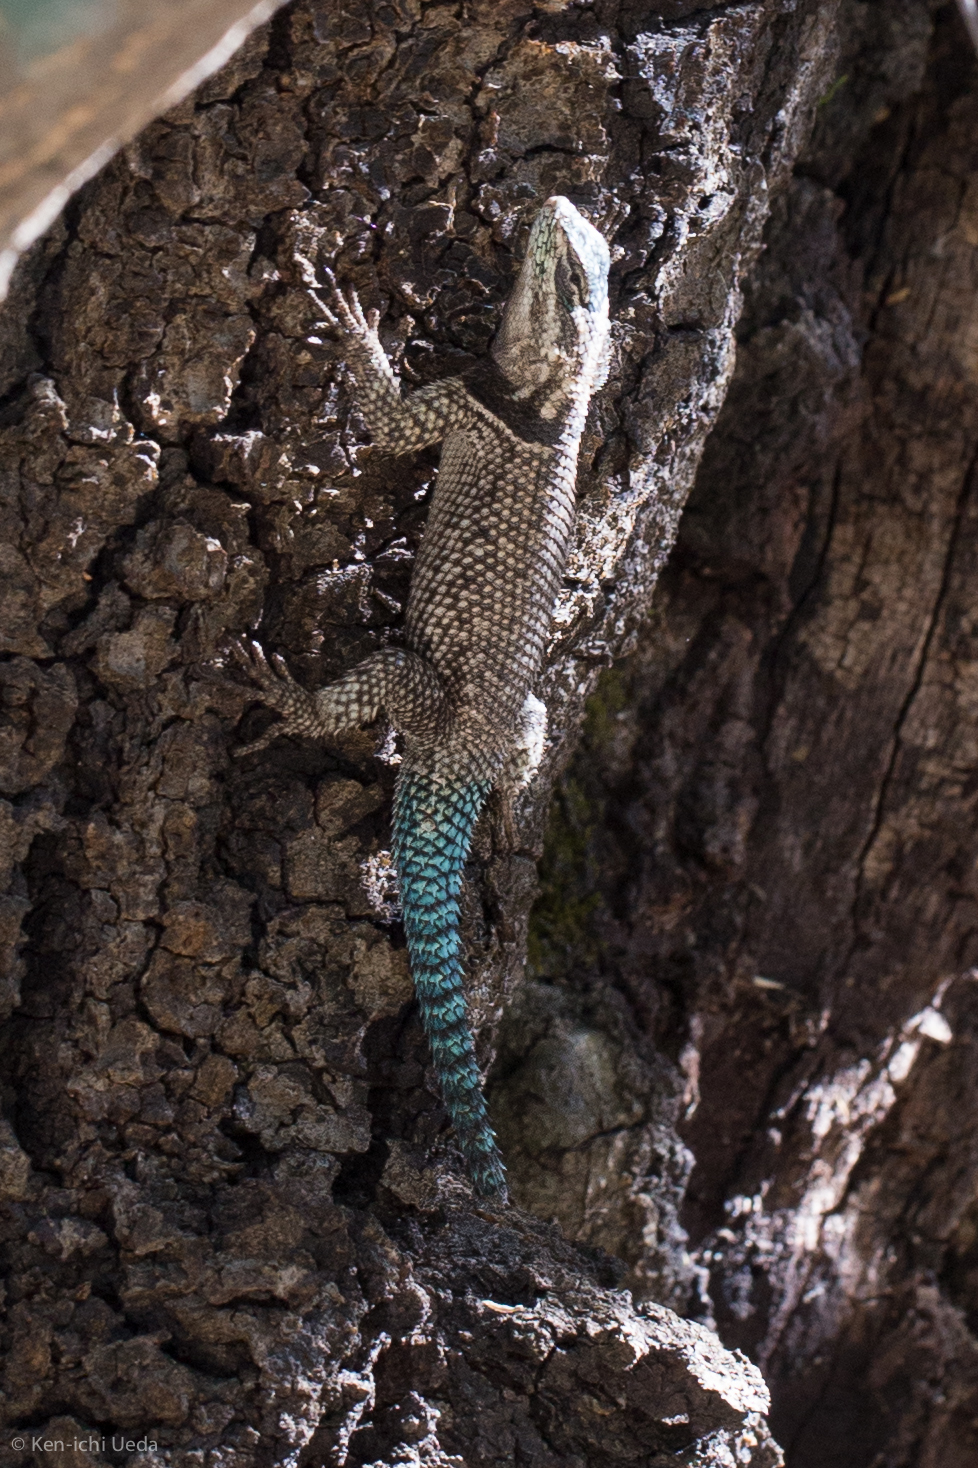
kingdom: Animalia
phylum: Chordata
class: Squamata
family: Phrynosomatidae
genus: Sceloporus
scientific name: Sceloporus jarrovii
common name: Yarrow's spiny lizard
